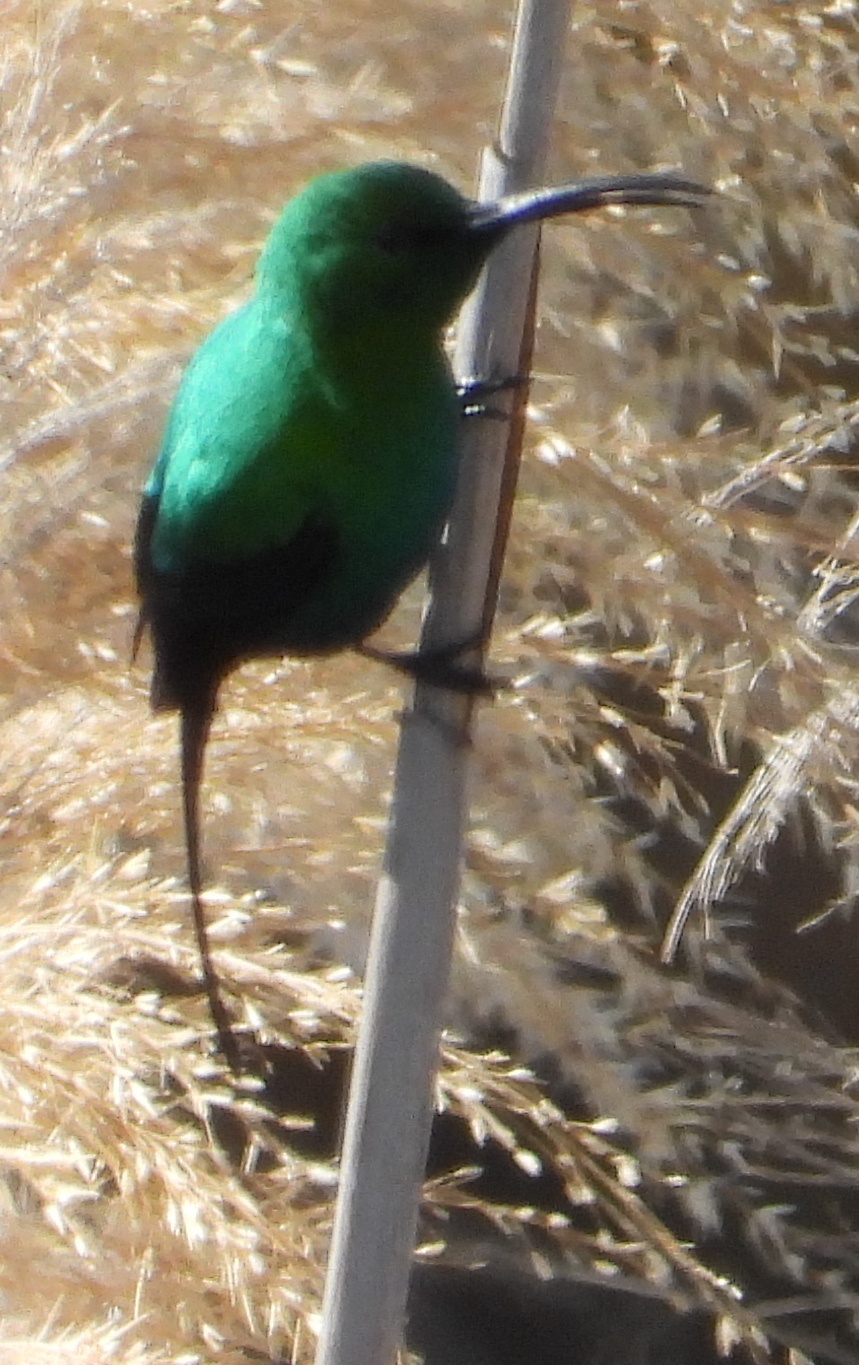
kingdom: Animalia
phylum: Chordata
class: Aves
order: Passeriformes
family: Nectariniidae
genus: Nectarinia
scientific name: Nectarinia famosa
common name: Malachite sunbird
